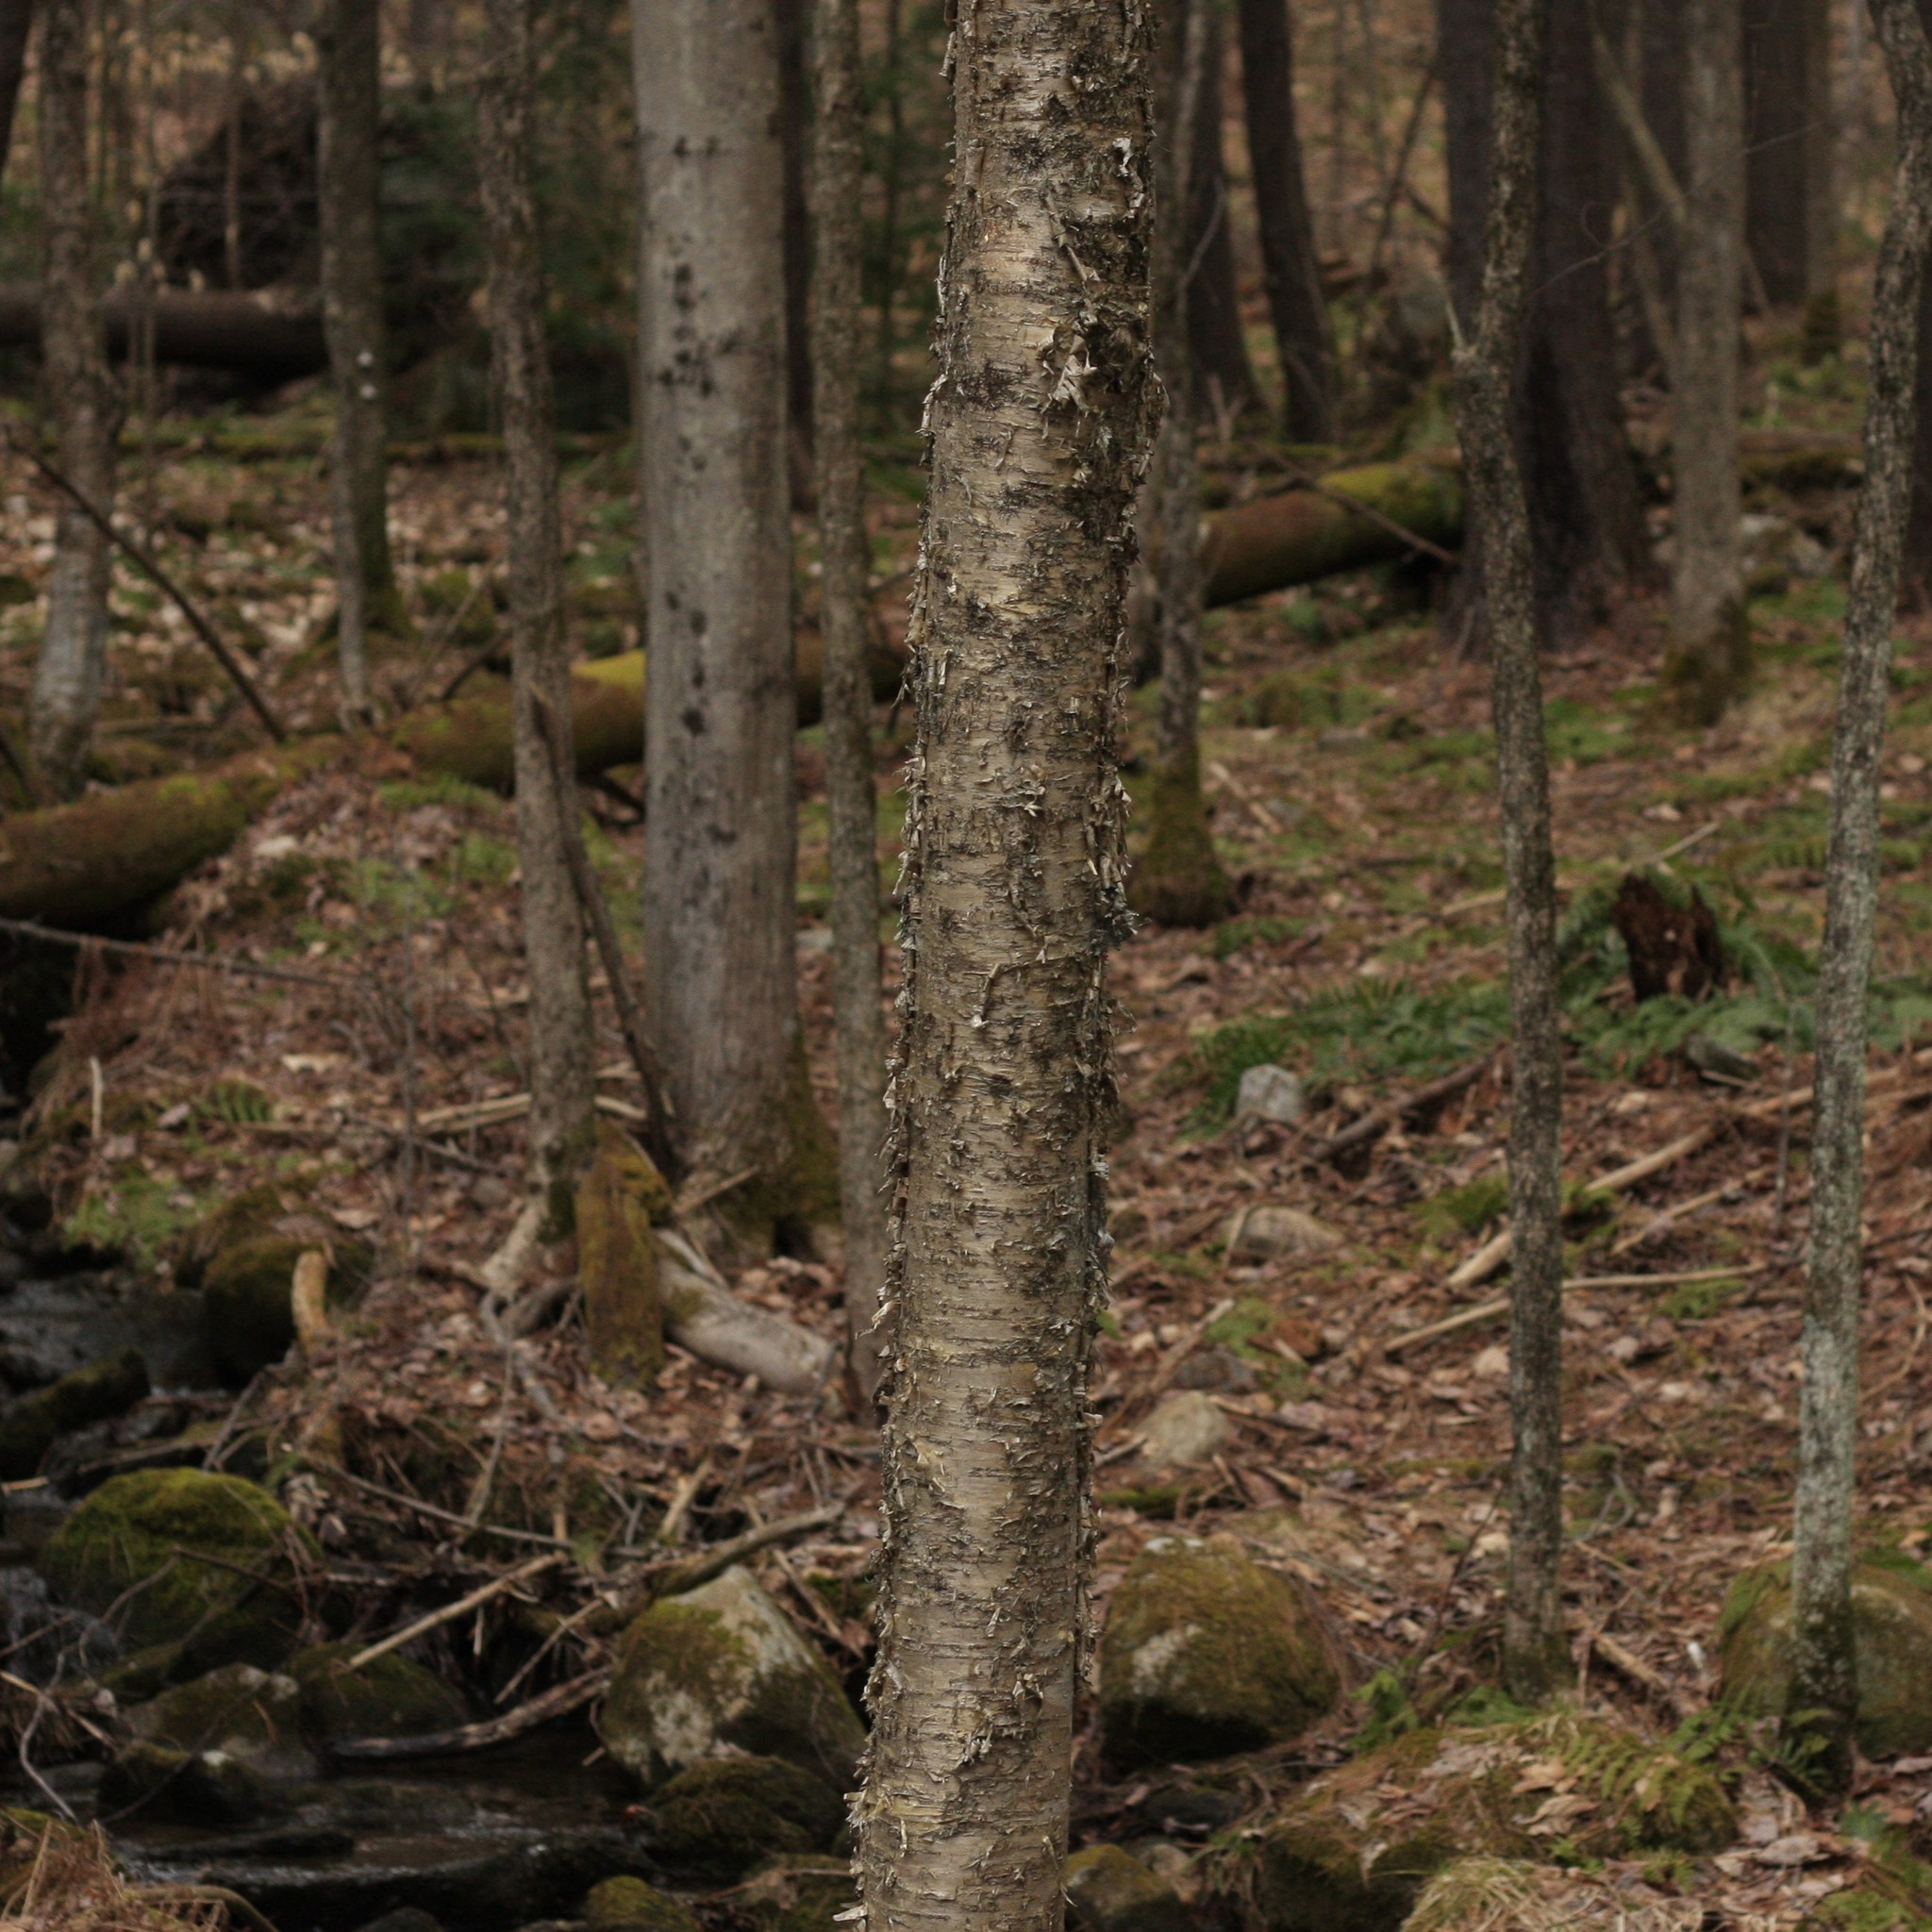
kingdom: Plantae
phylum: Tracheophyta
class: Magnoliopsida
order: Fagales
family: Betulaceae
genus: Betula
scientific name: Betula alleghaniensis
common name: Yellow birch
